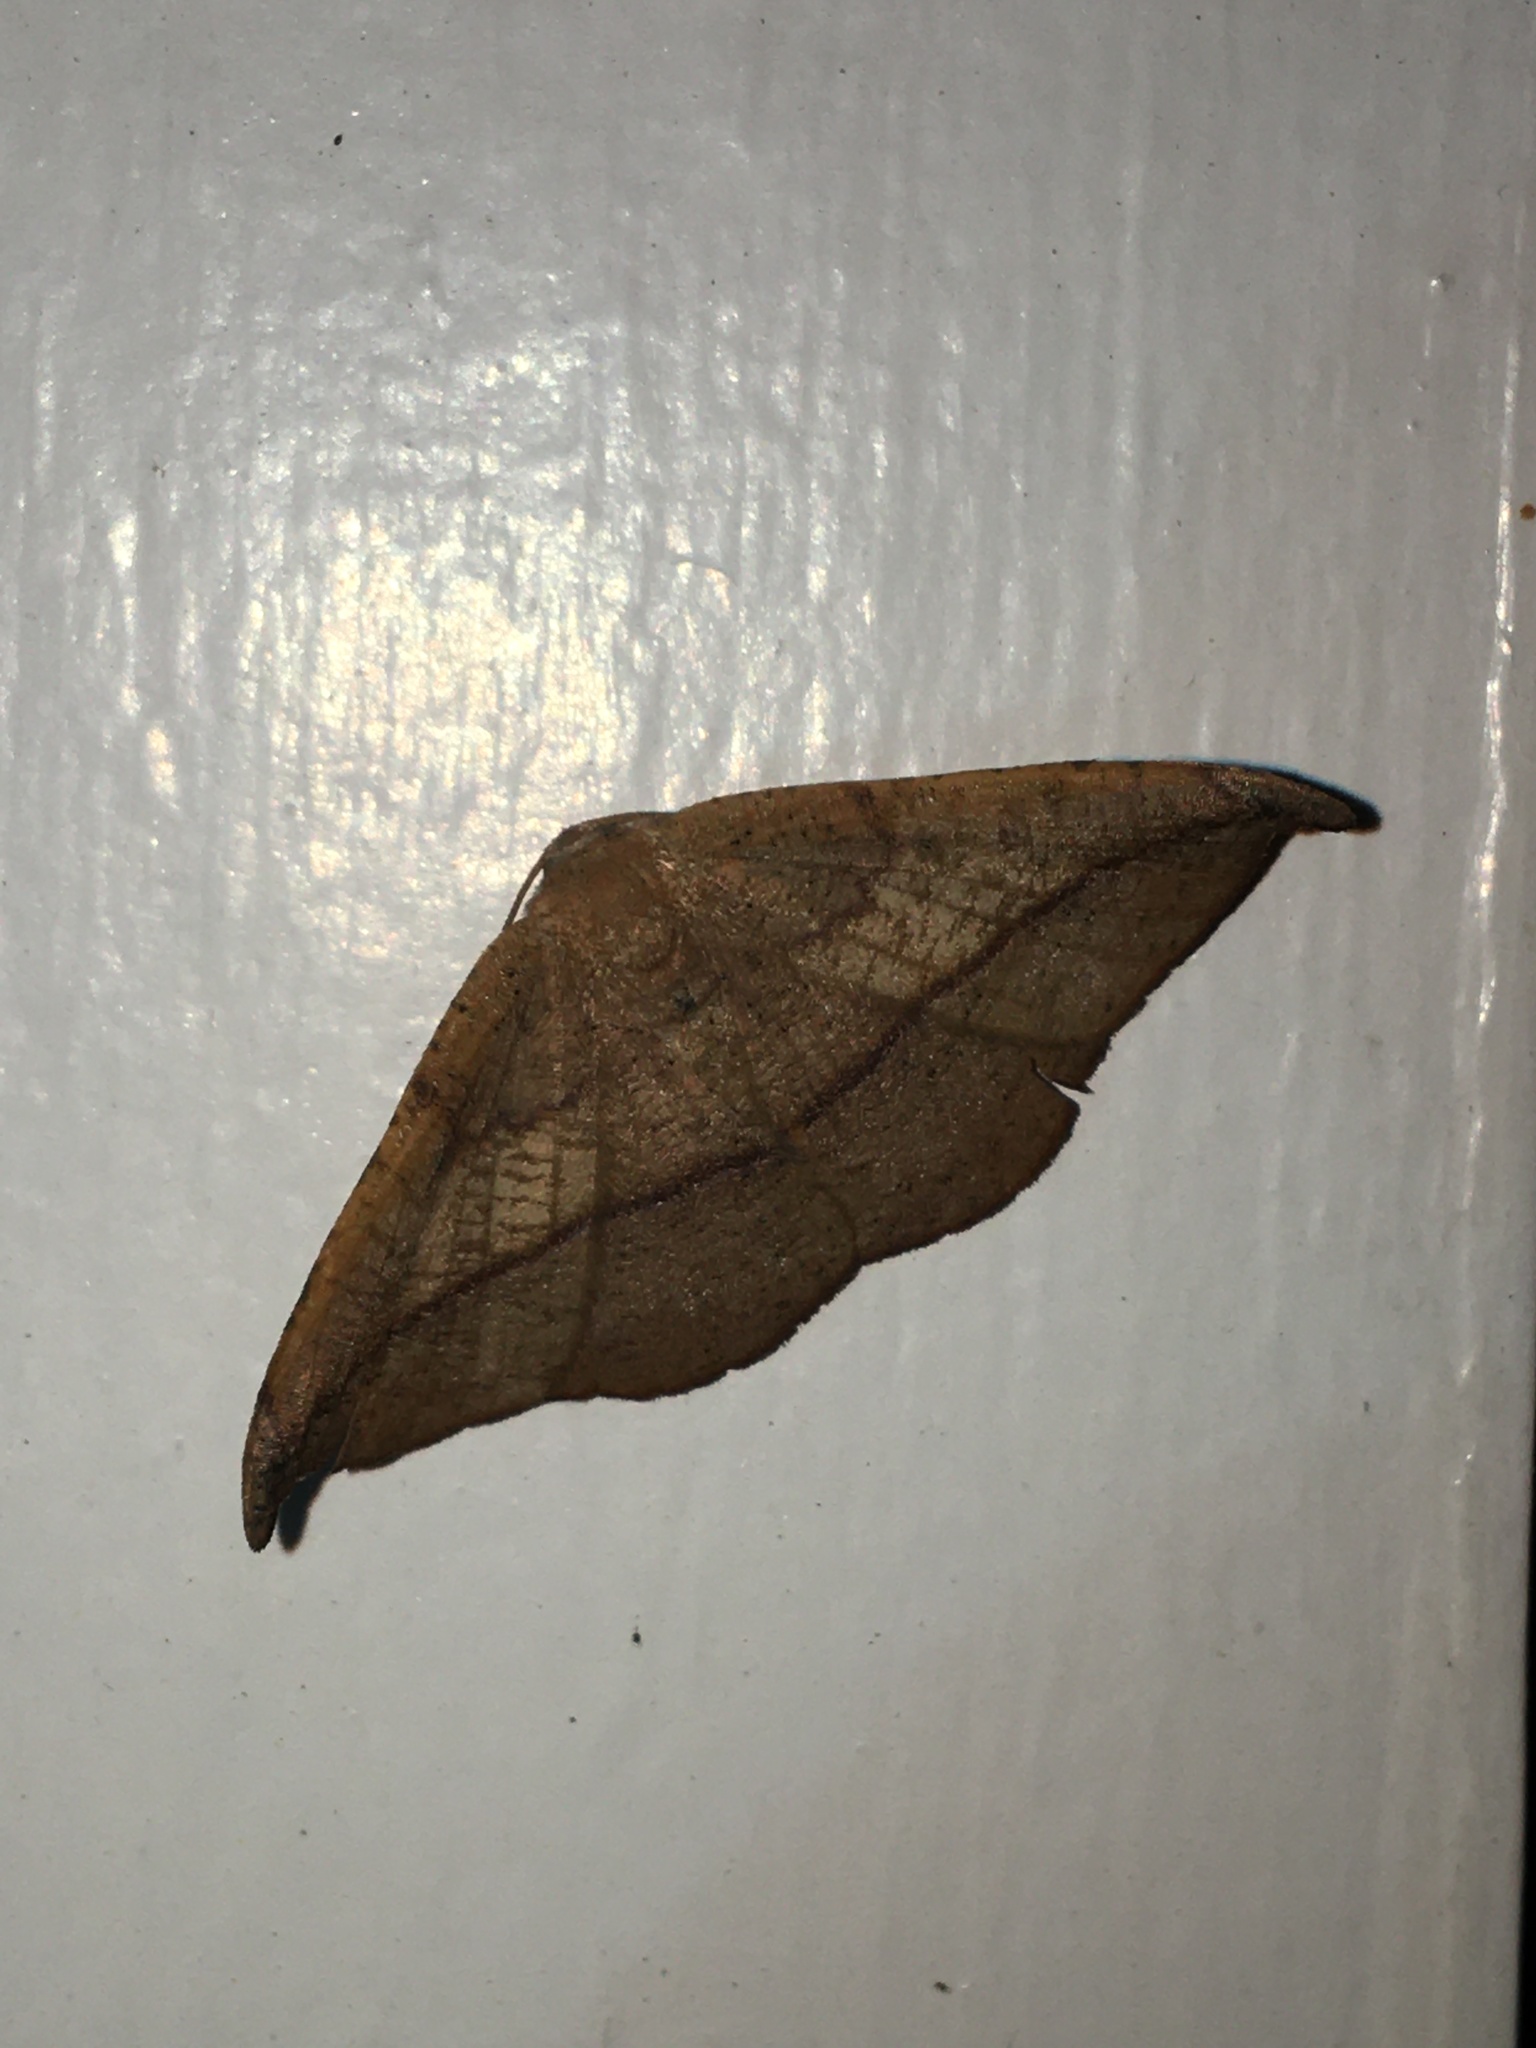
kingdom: Animalia
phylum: Arthropoda
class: Insecta
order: Lepidoptera
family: Geometridae
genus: Patalene
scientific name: Patalene olyzonaria
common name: Juniper geometer moth
